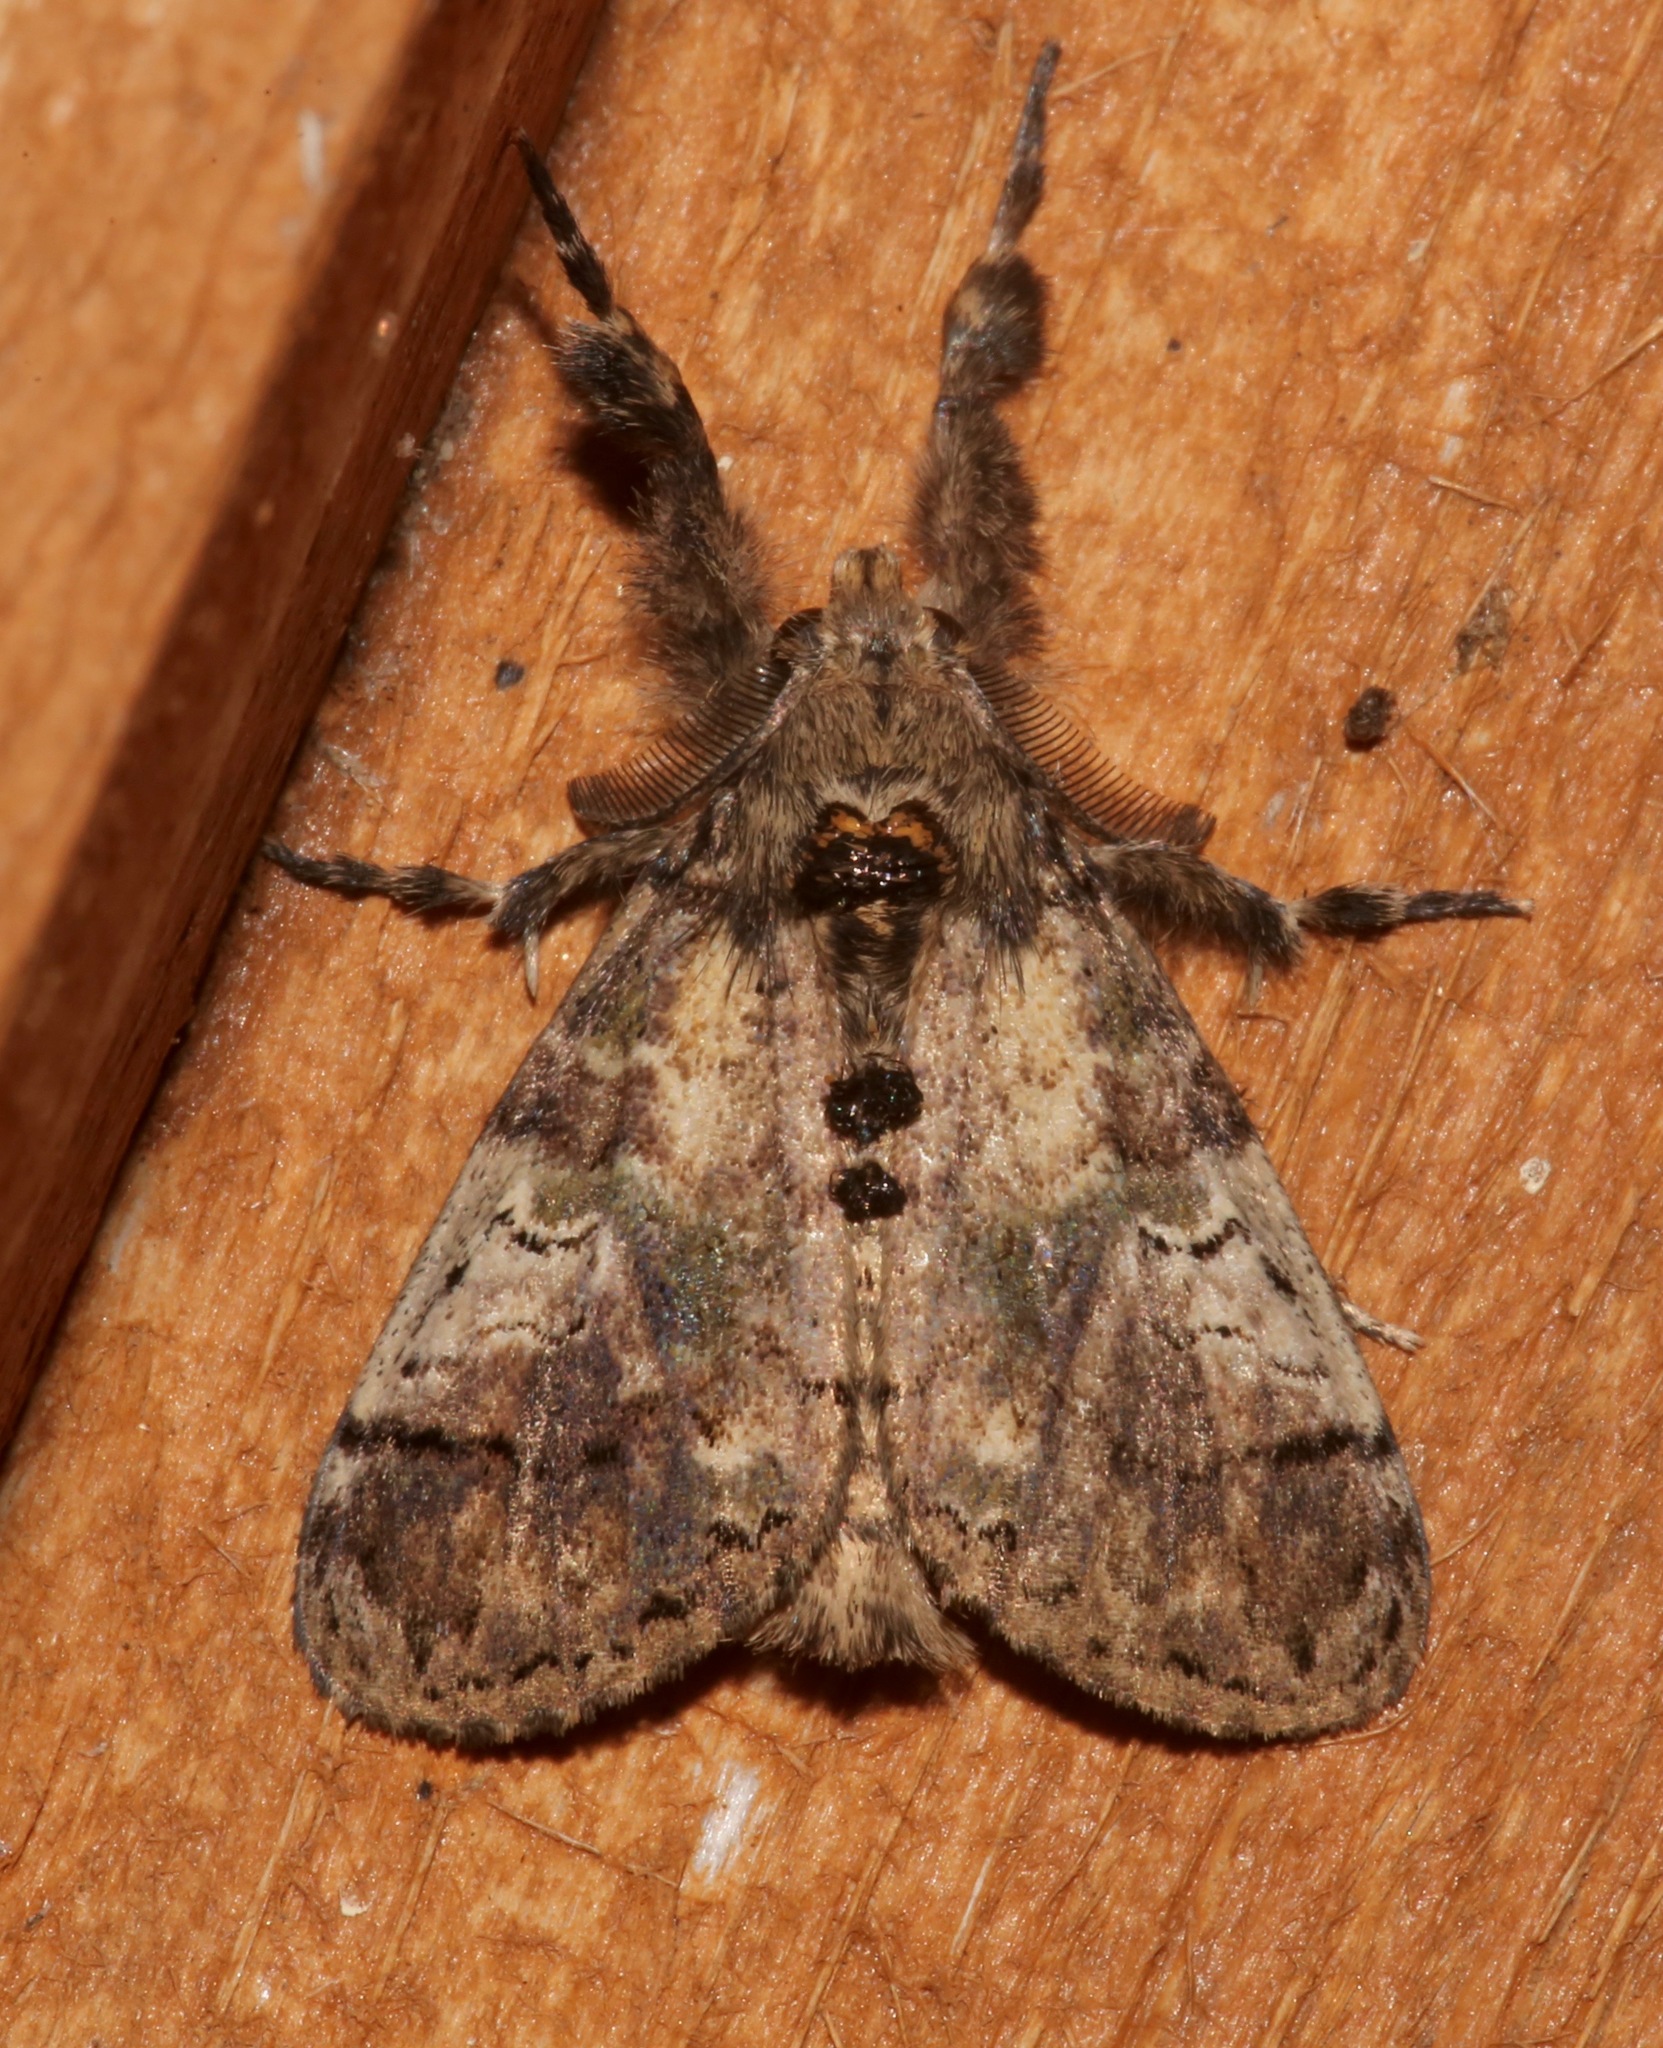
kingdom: Animalia
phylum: Arthropoda
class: Insecta
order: Lepidoptera
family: Erebidae
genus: Dasychira
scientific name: Dasychira meridionalis
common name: Southern tussock moth
